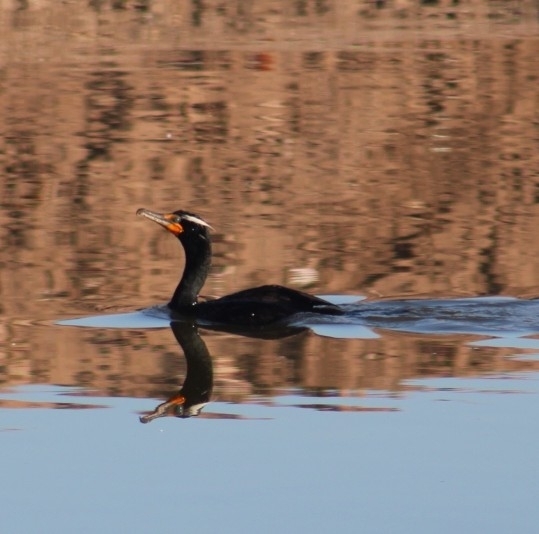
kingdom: Animalia
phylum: Chordata
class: Aves
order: Suliformes
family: Phalacrocoracidae
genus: Phalacrocorax
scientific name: Phalacrocorax auritus
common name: Double-crested cormorant
